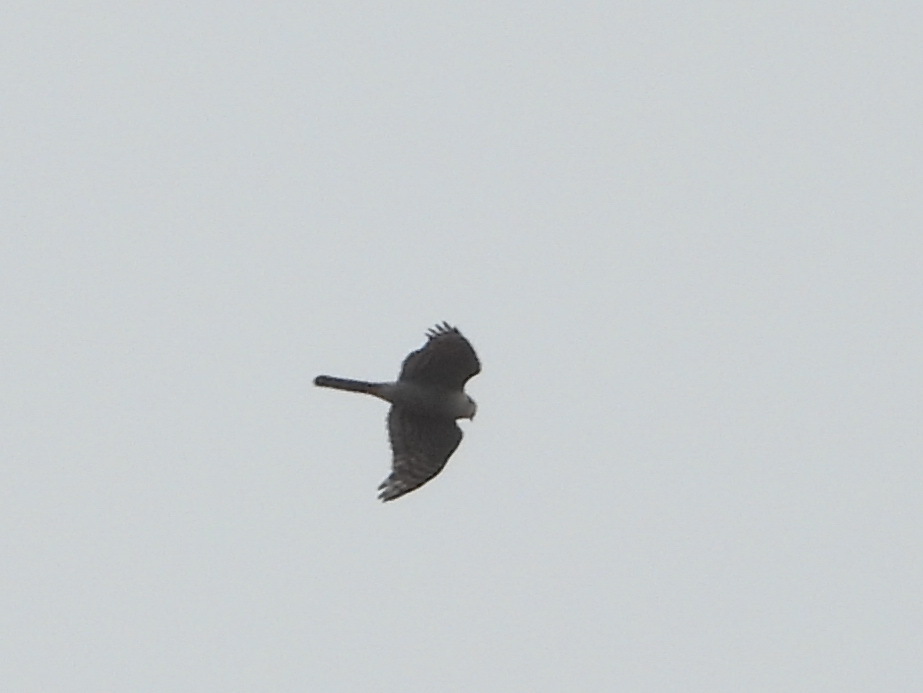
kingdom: Animalia
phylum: Chordata
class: Aves
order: Accipitriformes
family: Accipitridae
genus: Accipiter
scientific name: Accipiter nisus
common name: Eurasian sparrowhawk
